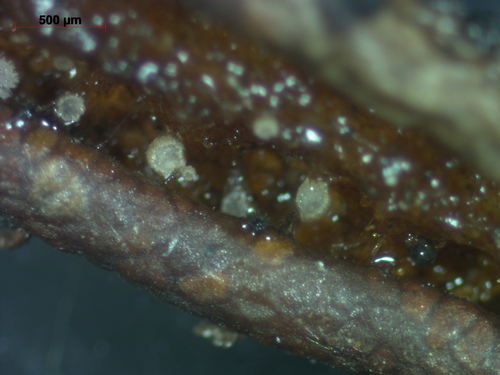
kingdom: Fungi
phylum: Ascomycota
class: Leotiomycetes
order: Helotiales
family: Hyphodiscaceae
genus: Fuscolachnum
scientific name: Fuscolachnum
